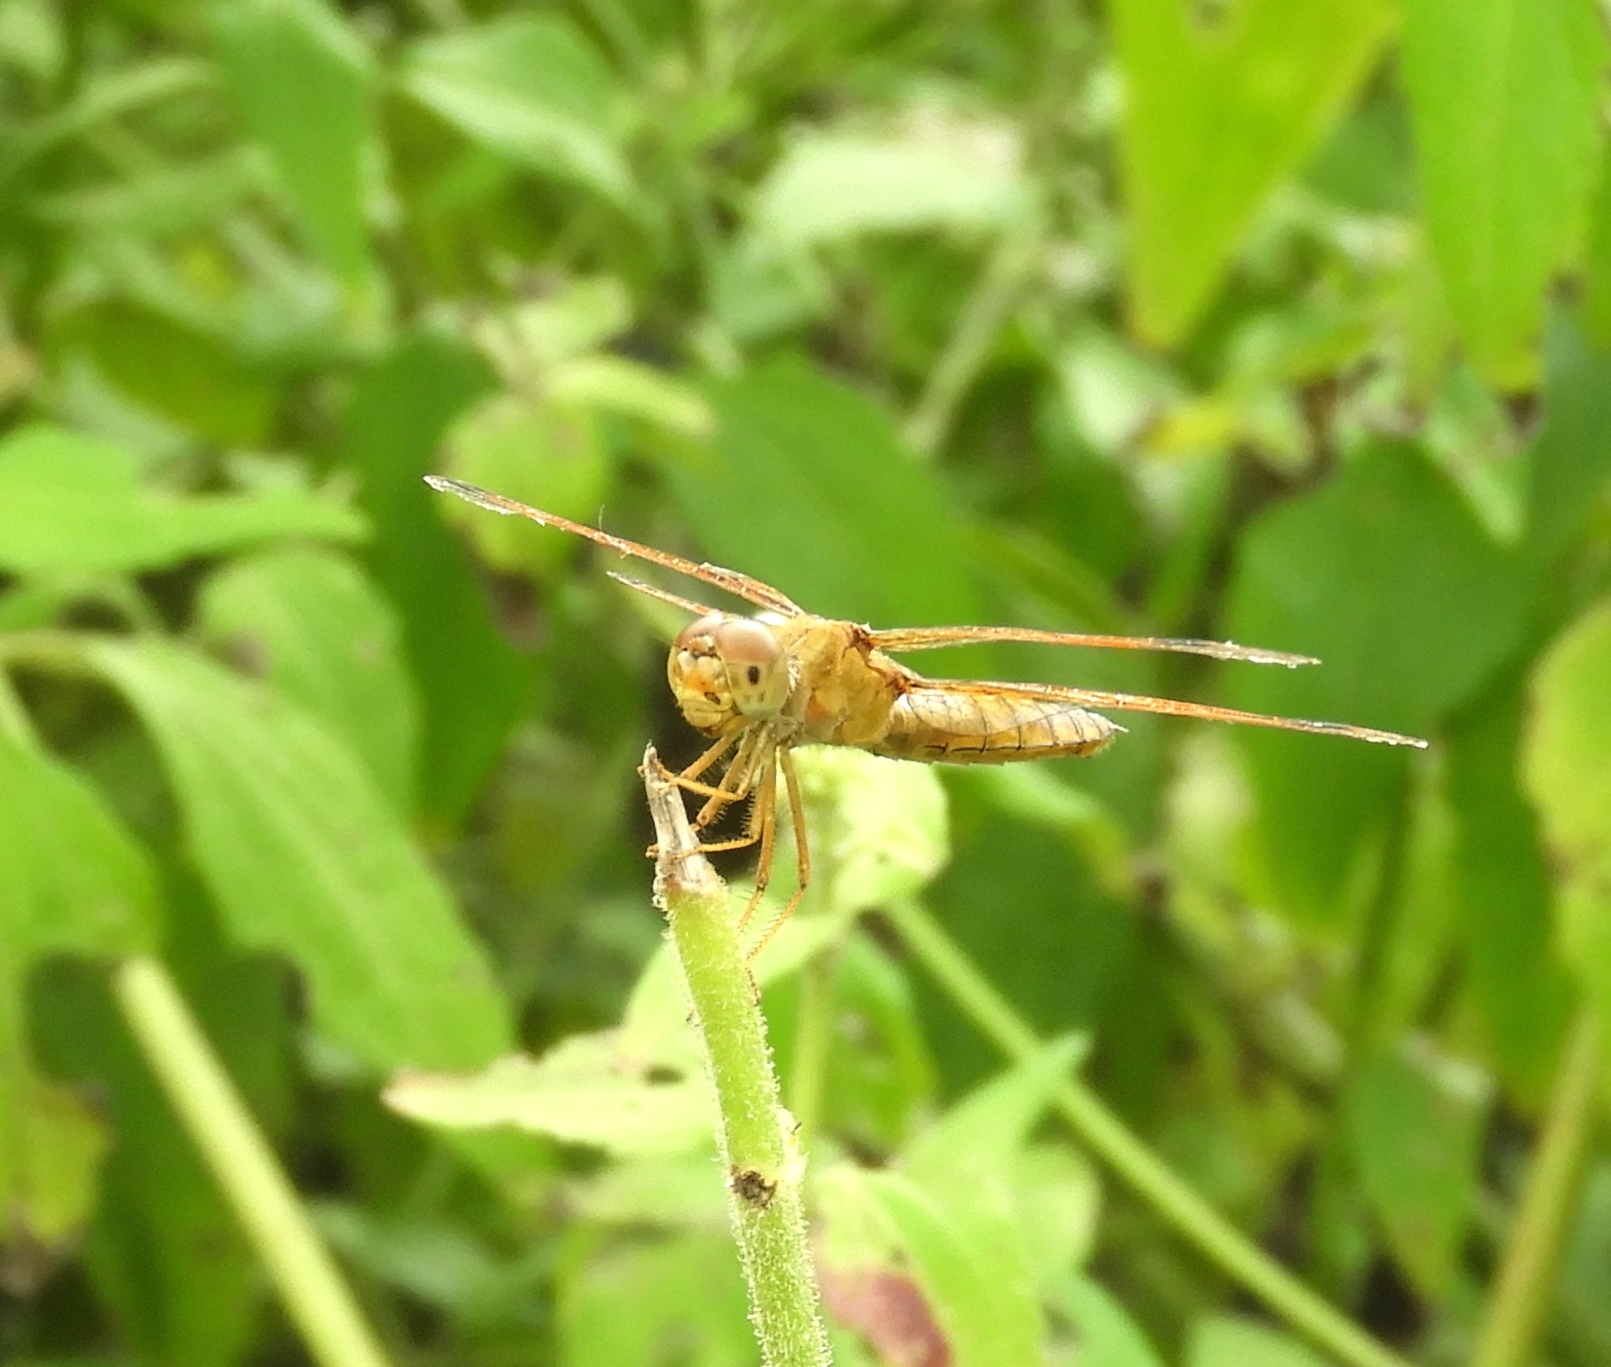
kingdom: Animalia
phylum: Arthropoda
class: Insecta
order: Odonata
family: Libellulidae
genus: Perithemis
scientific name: Perithemis intensa
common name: Mexican amberwing
